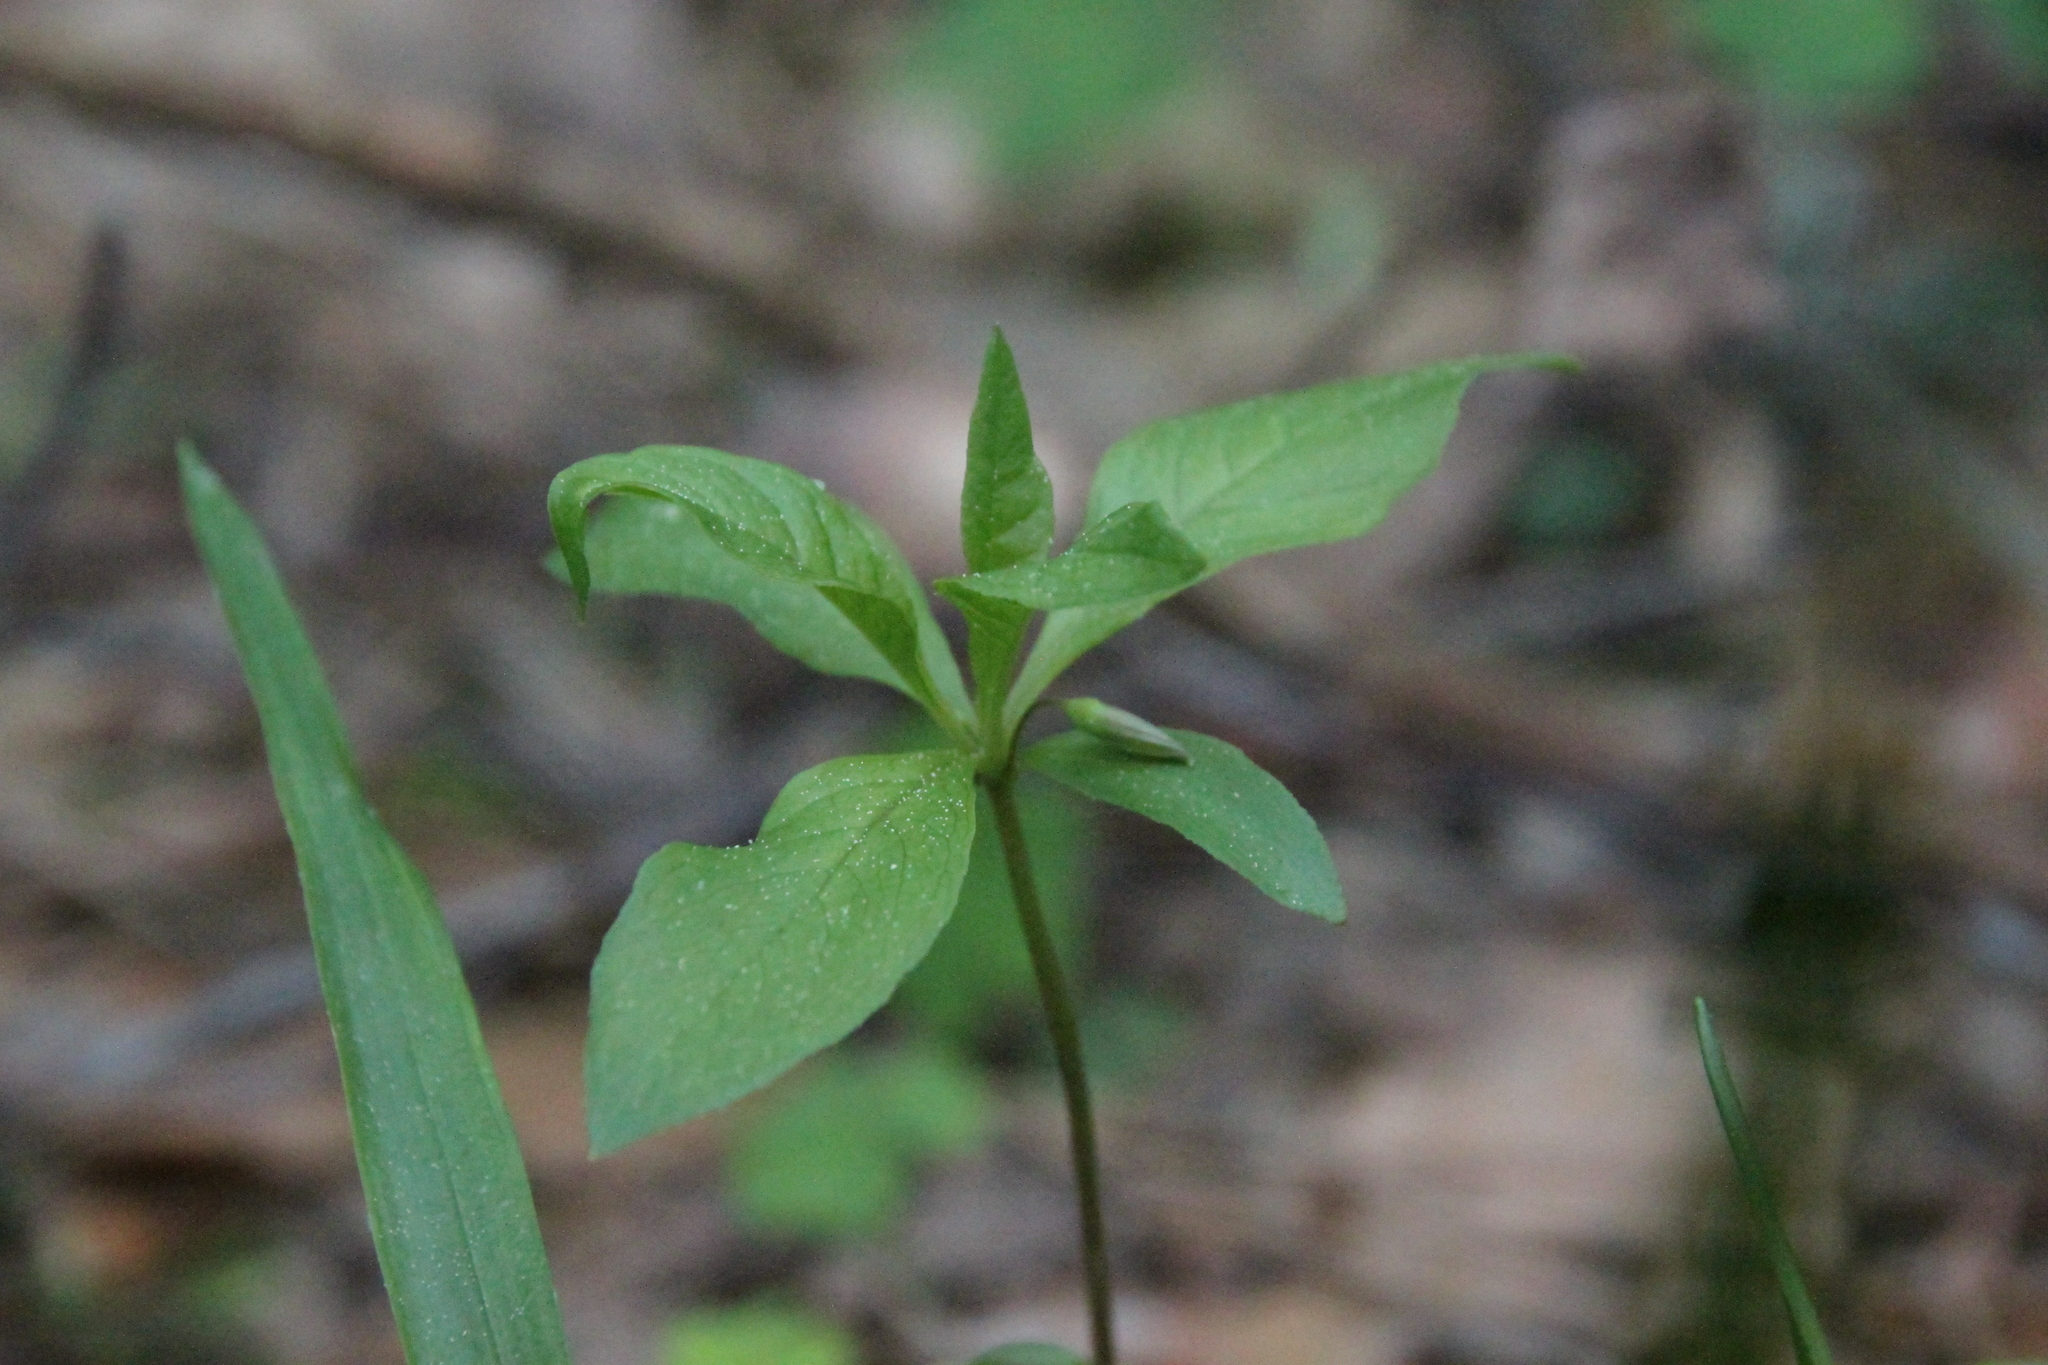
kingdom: Plantae
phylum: Tracheophyta
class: Magnoliopsida
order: Ericales
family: Primulaceae
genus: Lysimachia
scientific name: Lysimachia europaea
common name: Arctic starflower
